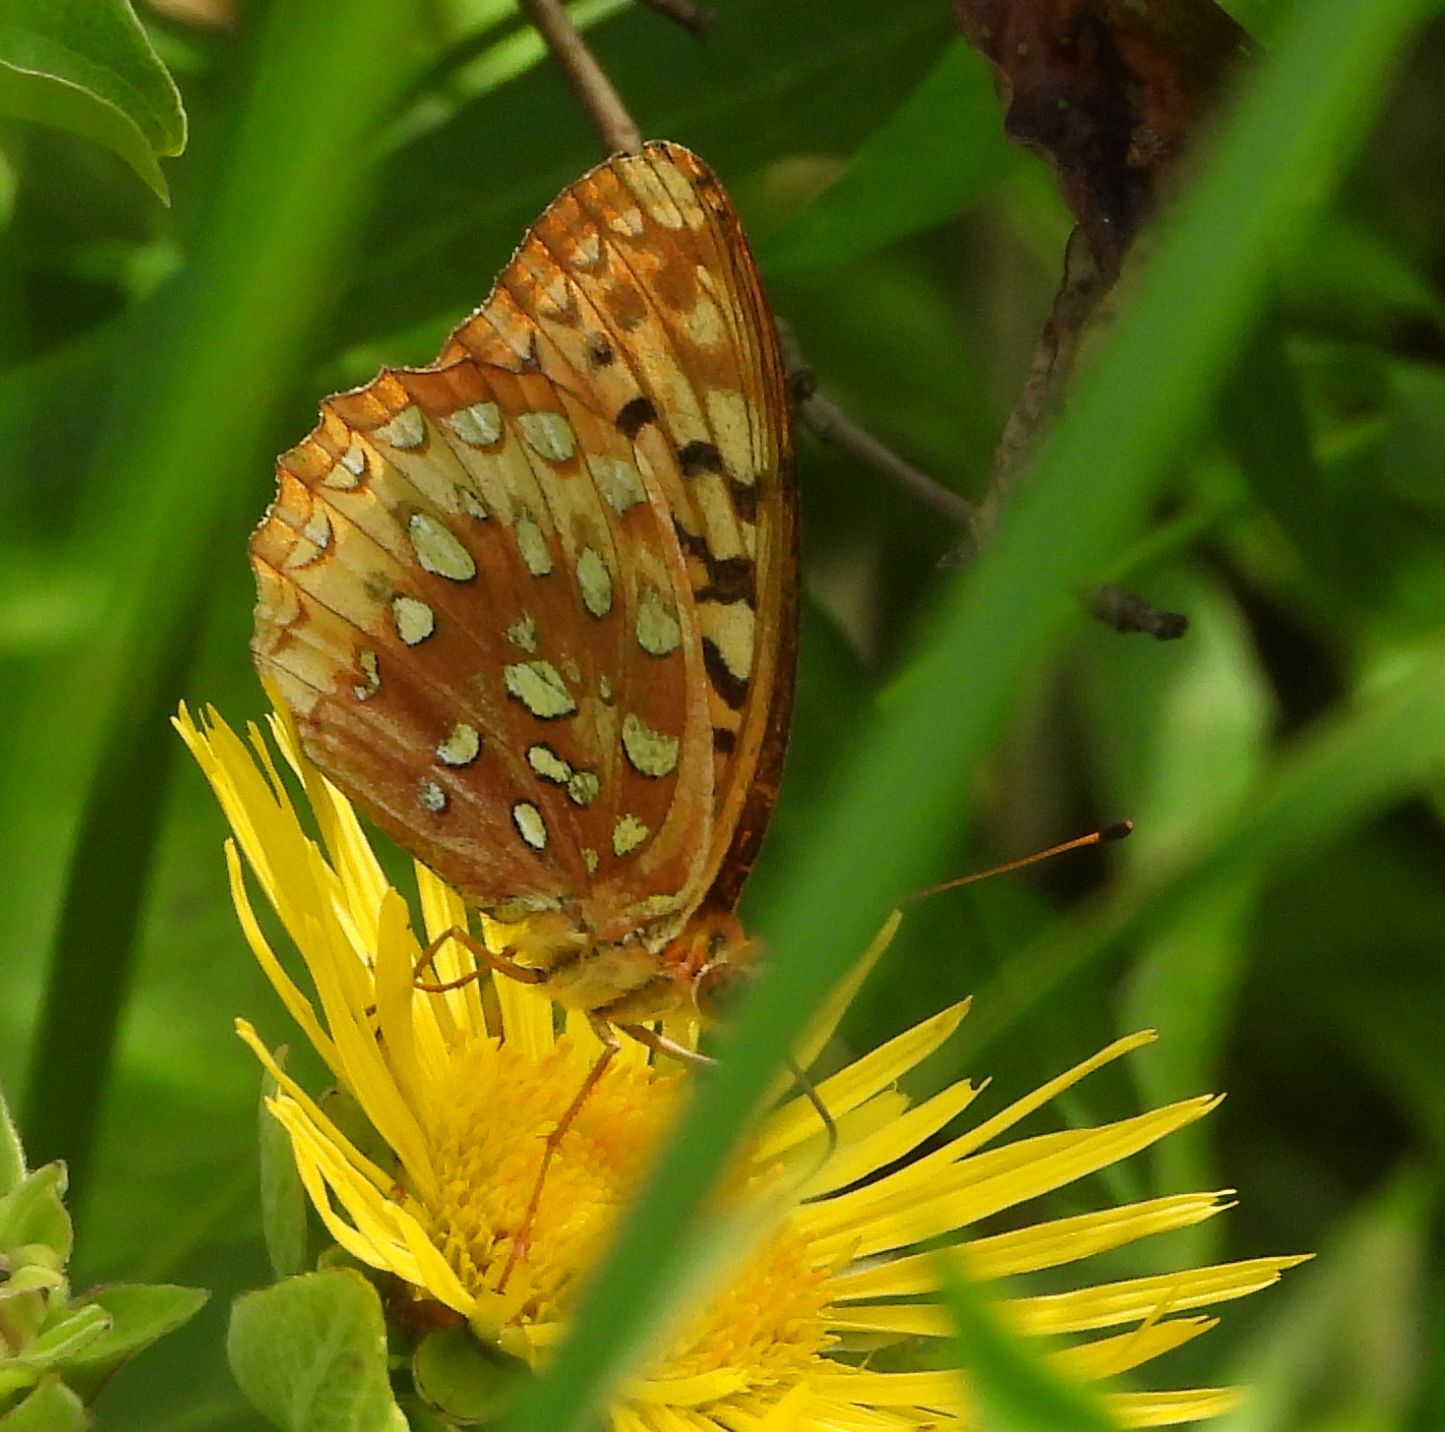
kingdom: Animalia
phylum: Arthropoda
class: Insecta
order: Lepidoptera
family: Nymphalidae
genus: Speyeria
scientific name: Speyeria cybele
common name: Great spangled fritillary
